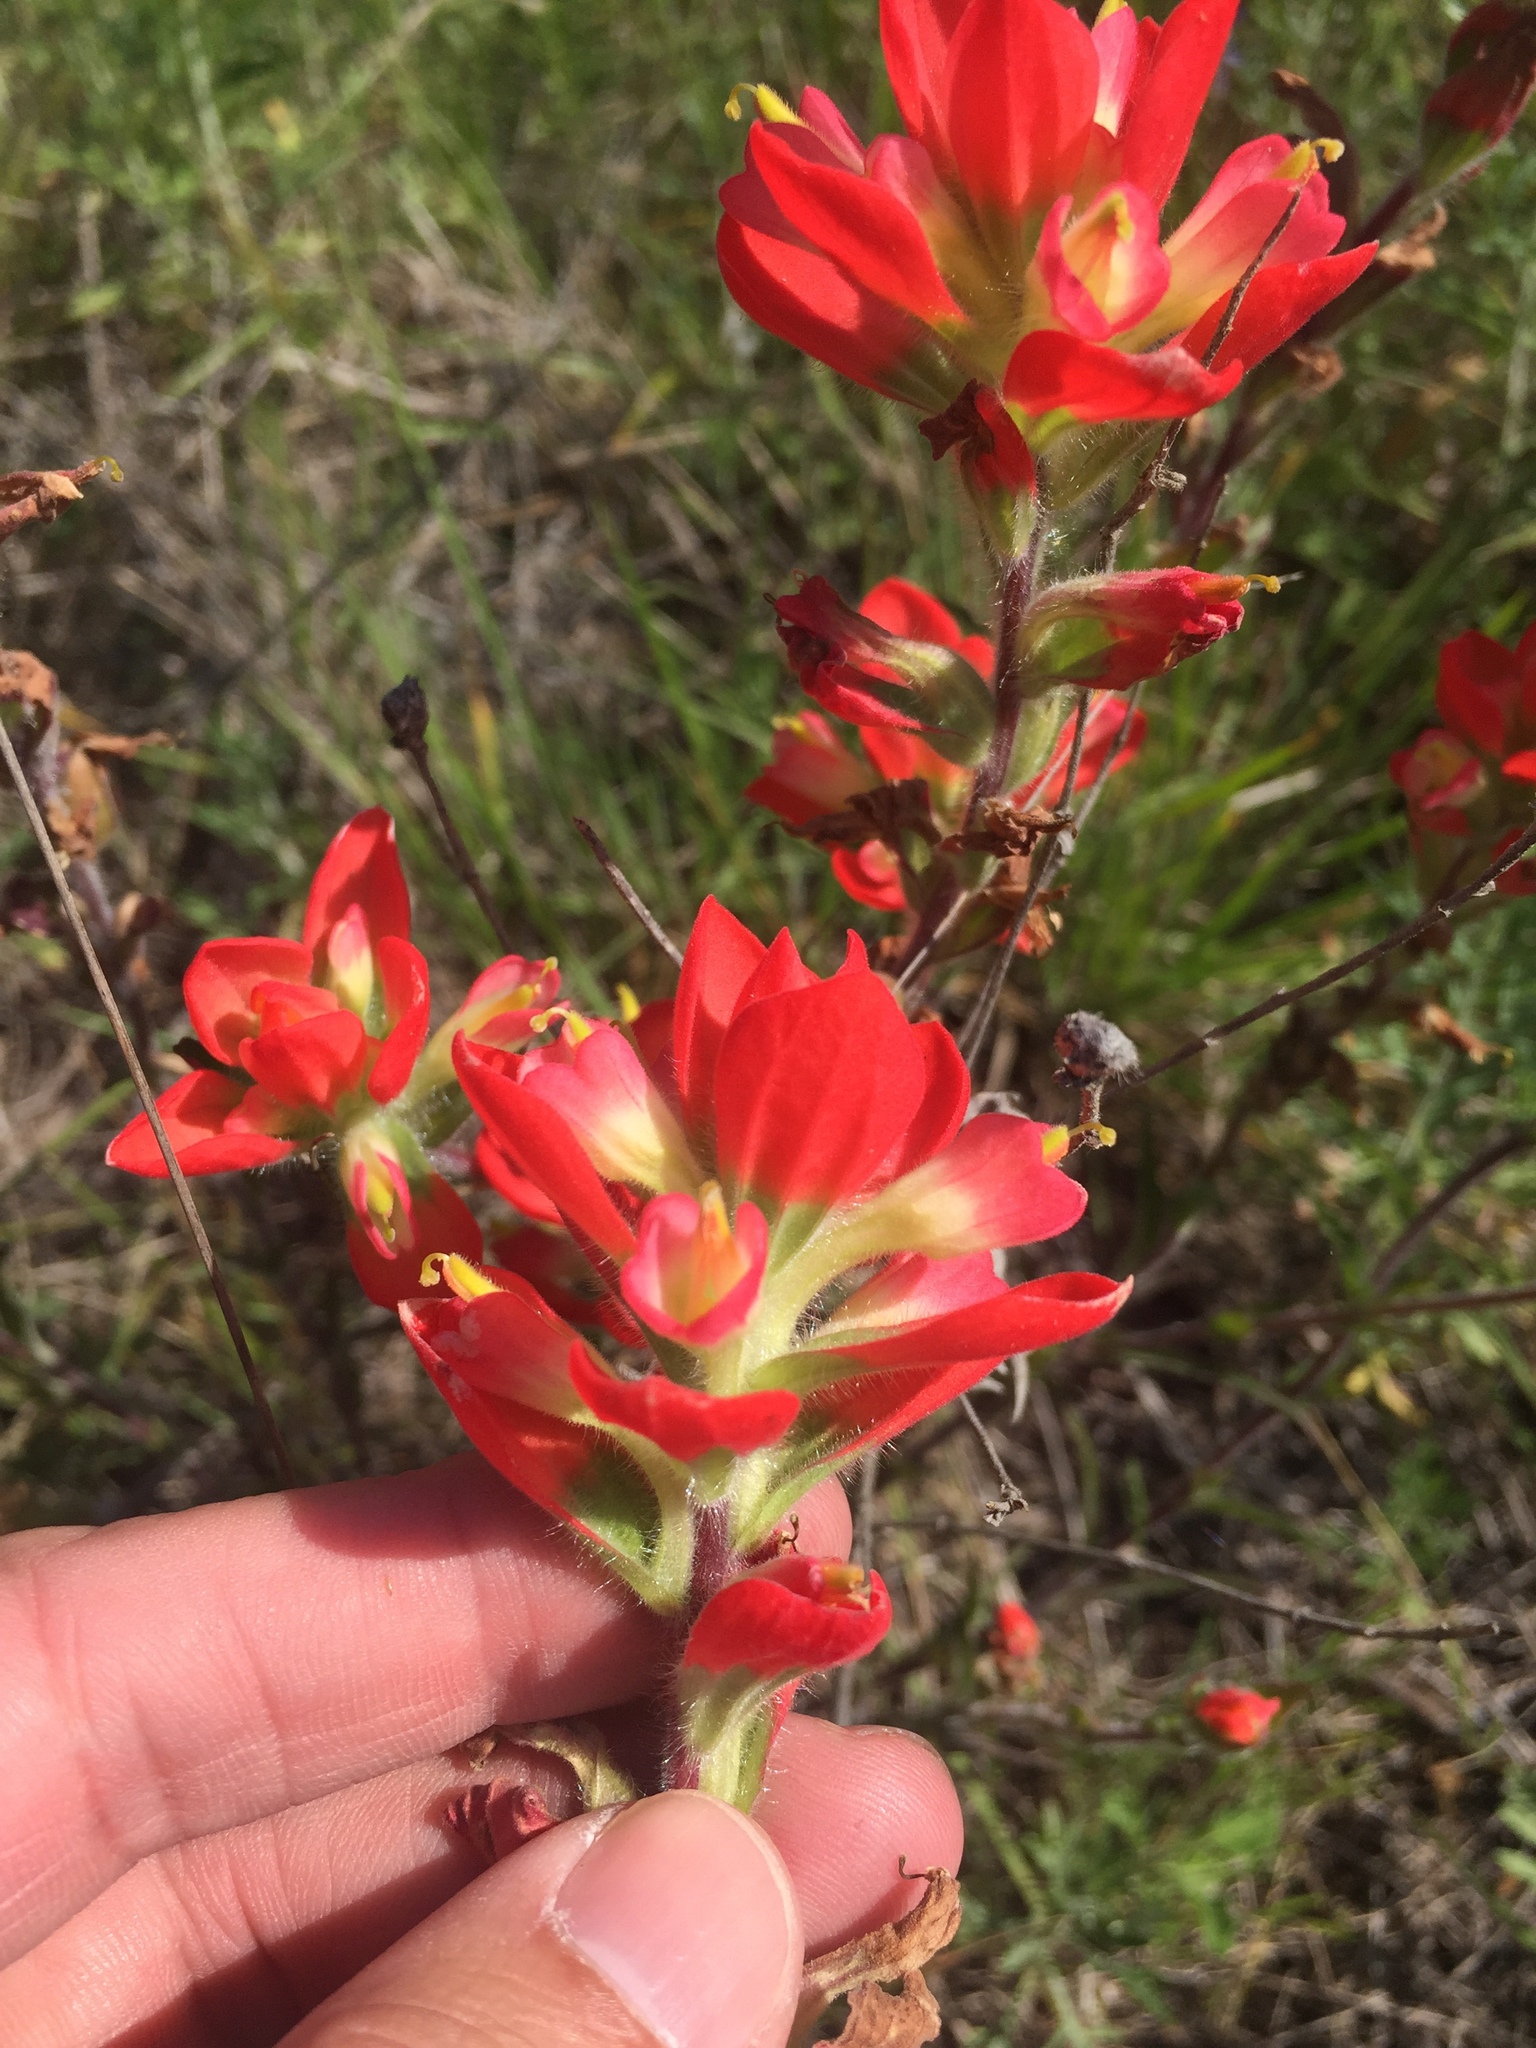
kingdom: Plantae
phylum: Tracheophyta
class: Magnoliopsida
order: Lamiales
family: Orobanchaceae
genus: Castilleja
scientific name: Castilleja indivisa
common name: Texas paintbrush
